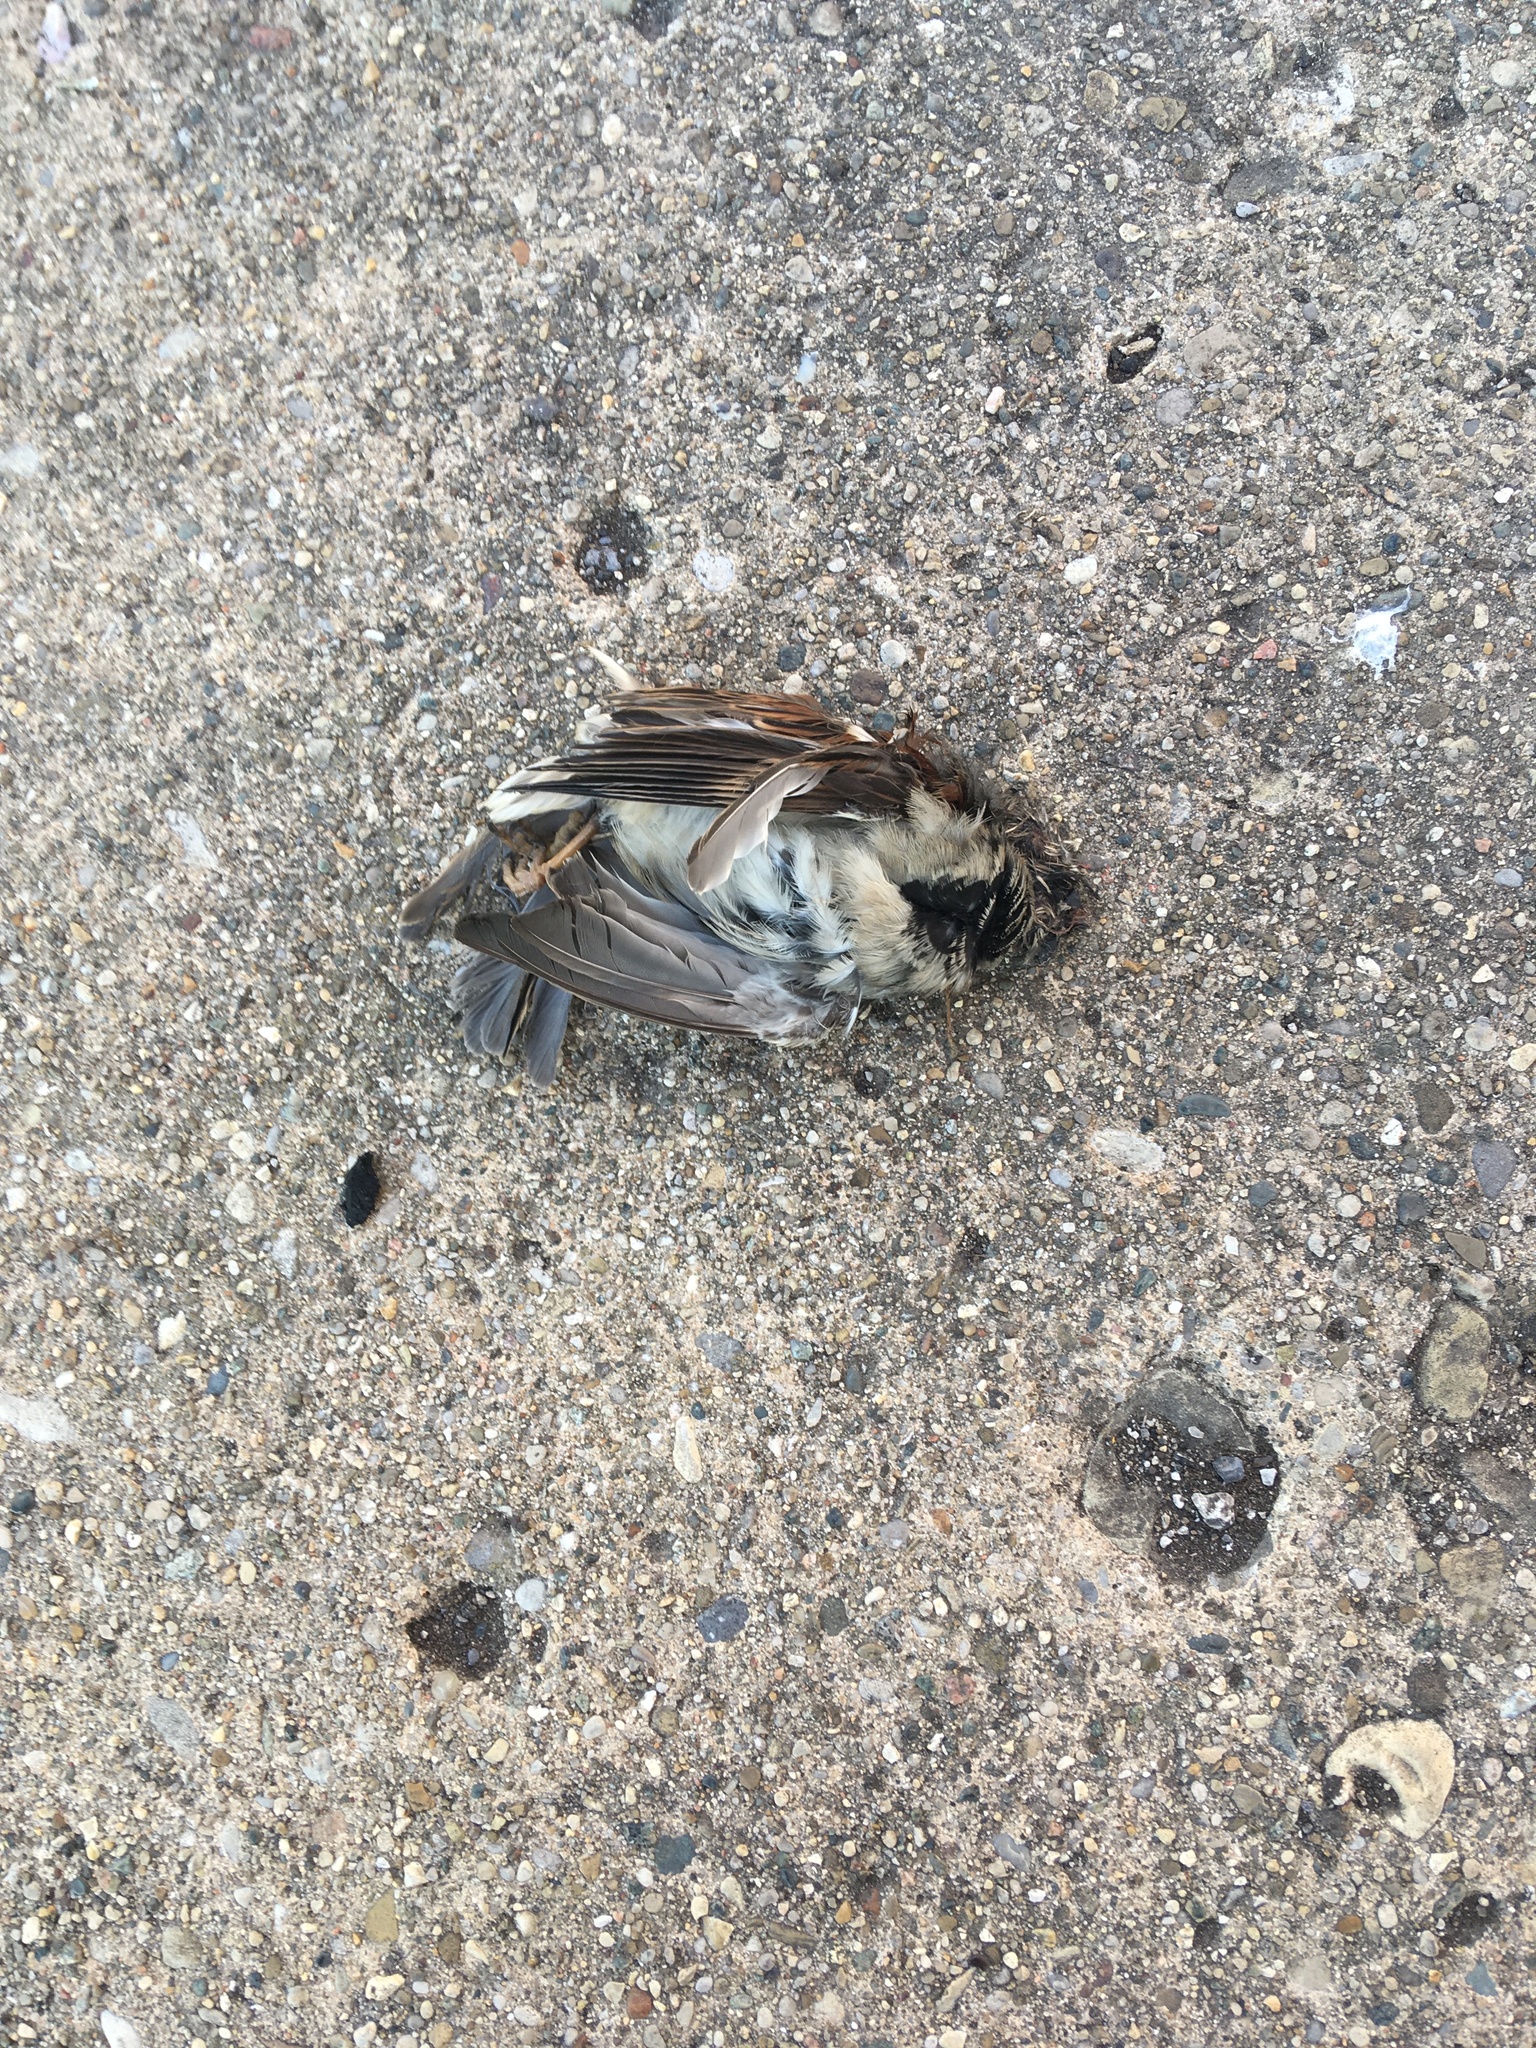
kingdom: Animalia
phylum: Chordata
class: Aves
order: Passeriformes
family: Passeridae
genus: Passer
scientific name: Passer domesticus
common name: House sparrow
